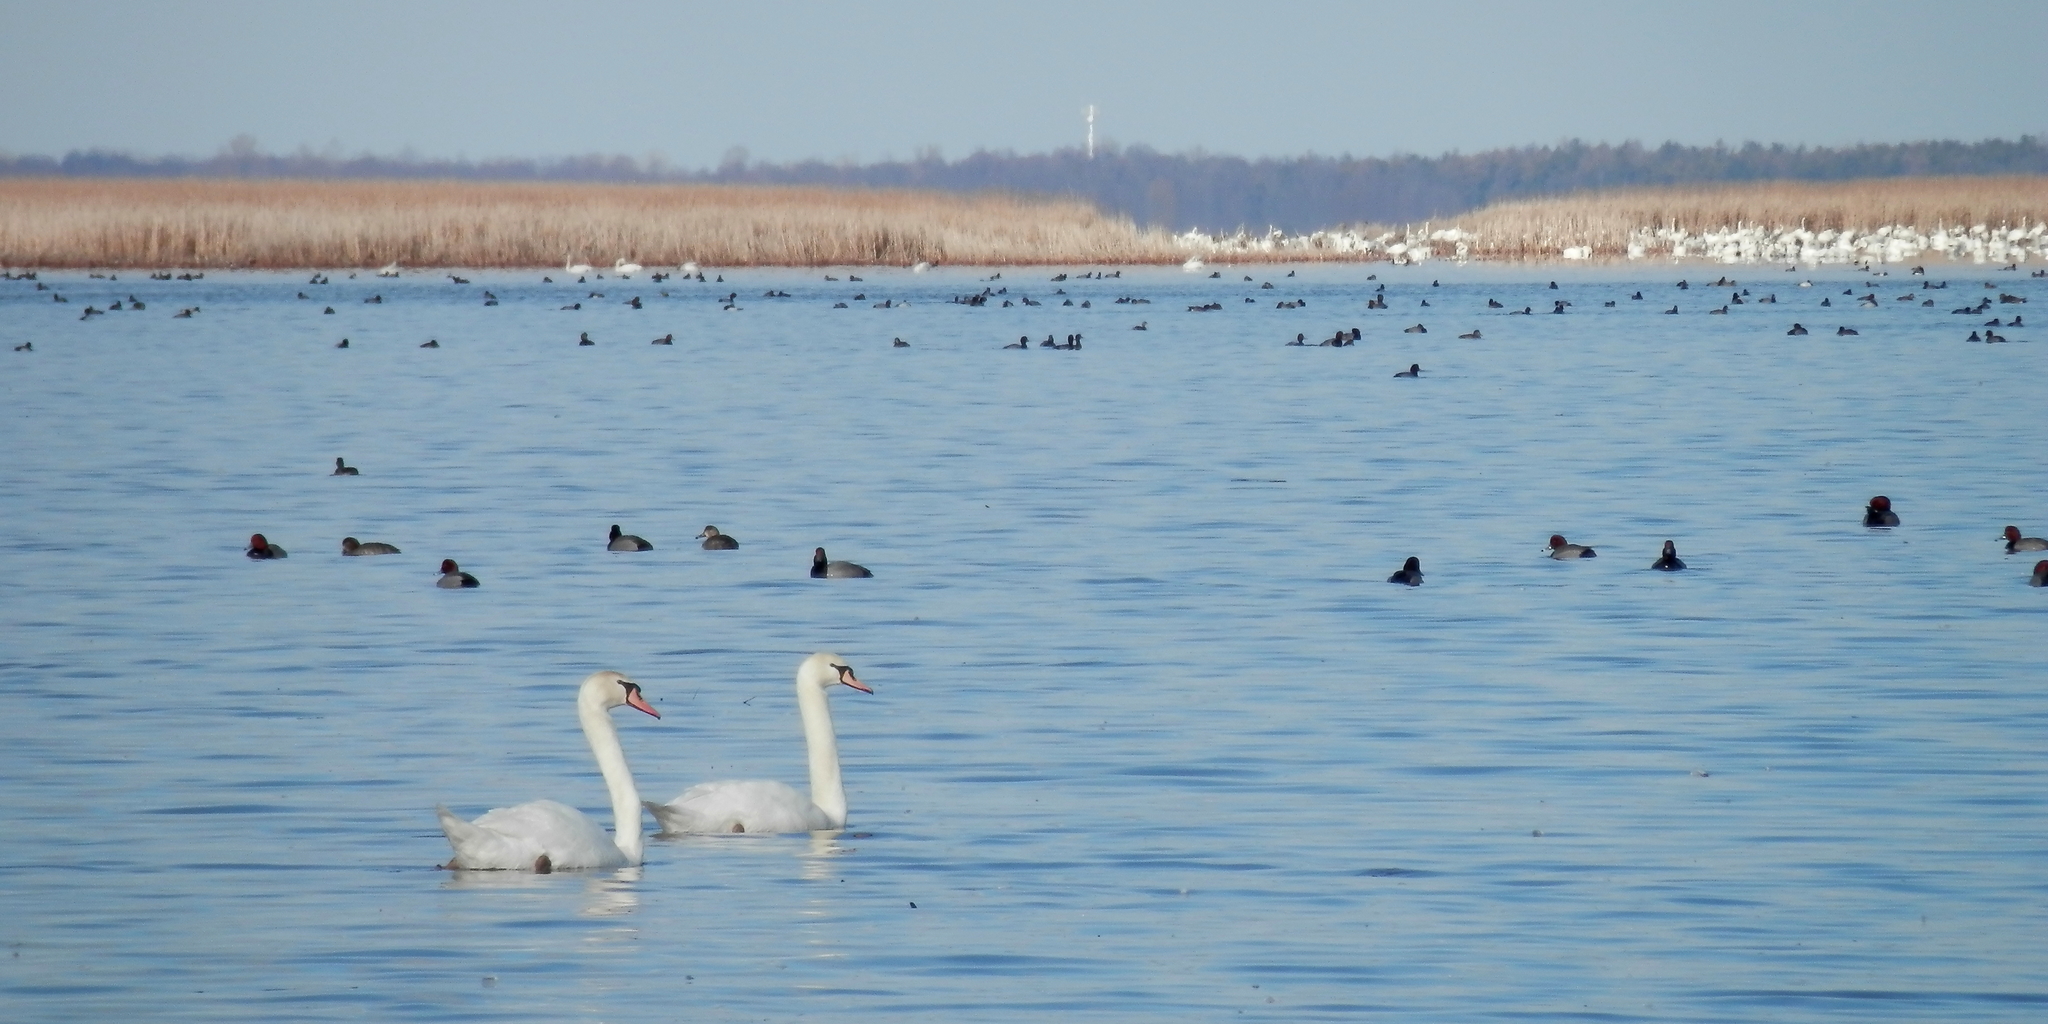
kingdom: Animalia
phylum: Chordata
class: Aves
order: Anseriformes
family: Anatidae
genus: Cygnus
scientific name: Cygnus olor
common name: Mute swan
